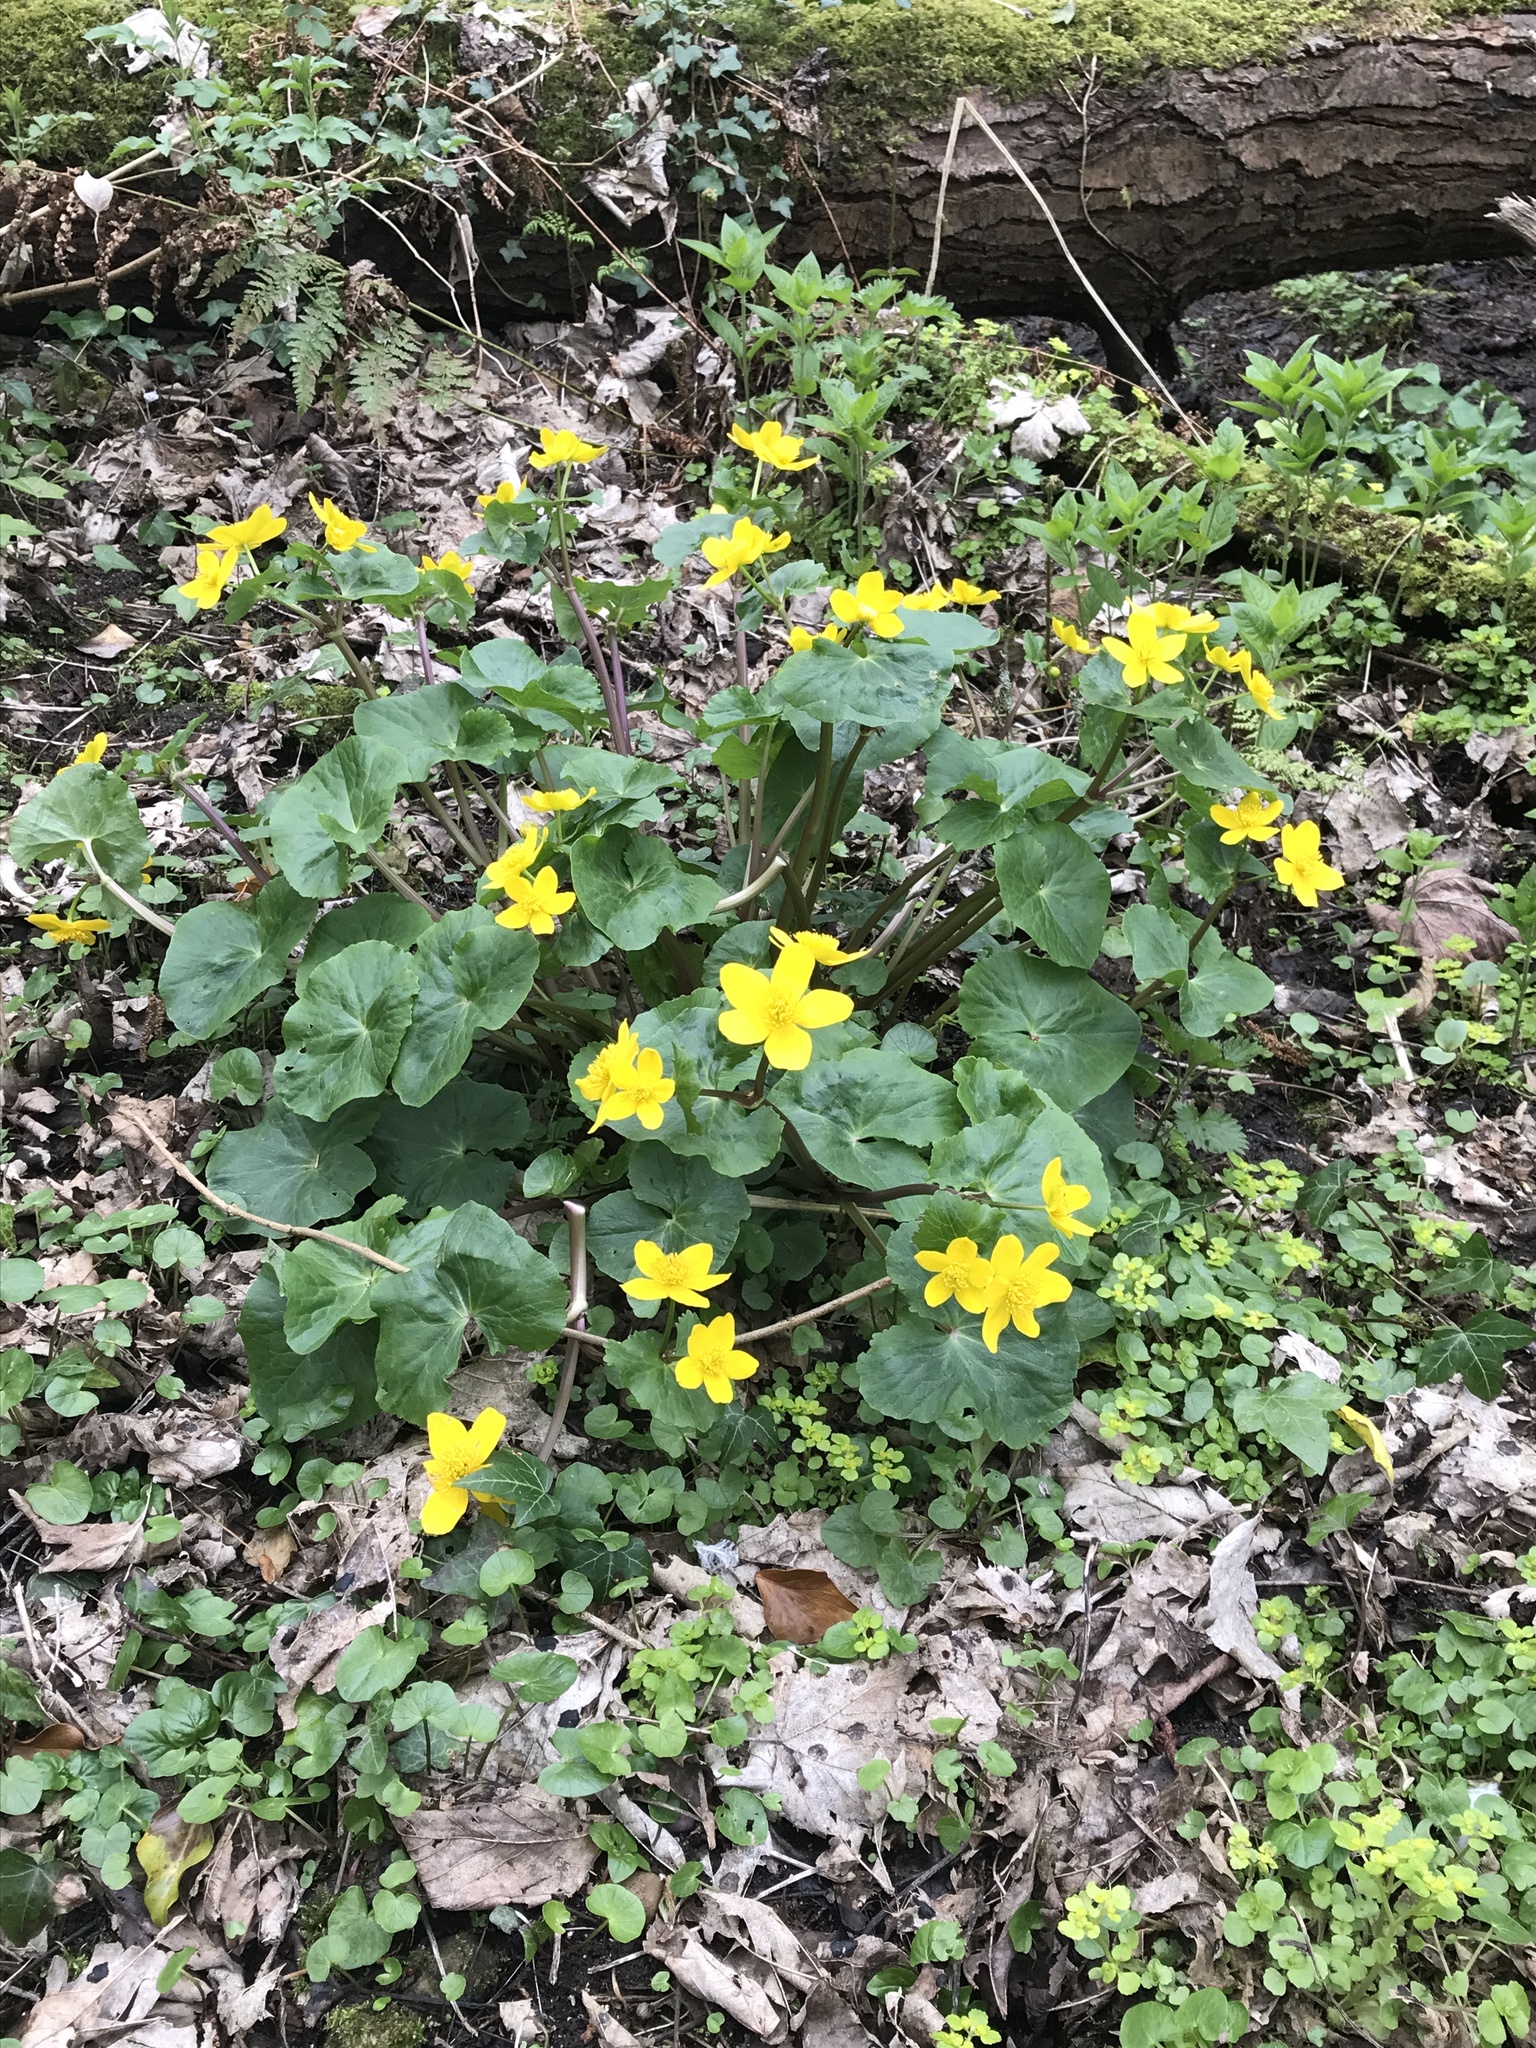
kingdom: Plantae
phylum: Tracheophyta
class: Magnoliopsida
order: Ranunculales
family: Ranunculaceae
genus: Caltha
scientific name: Caltha palustris
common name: Marsh marigold
